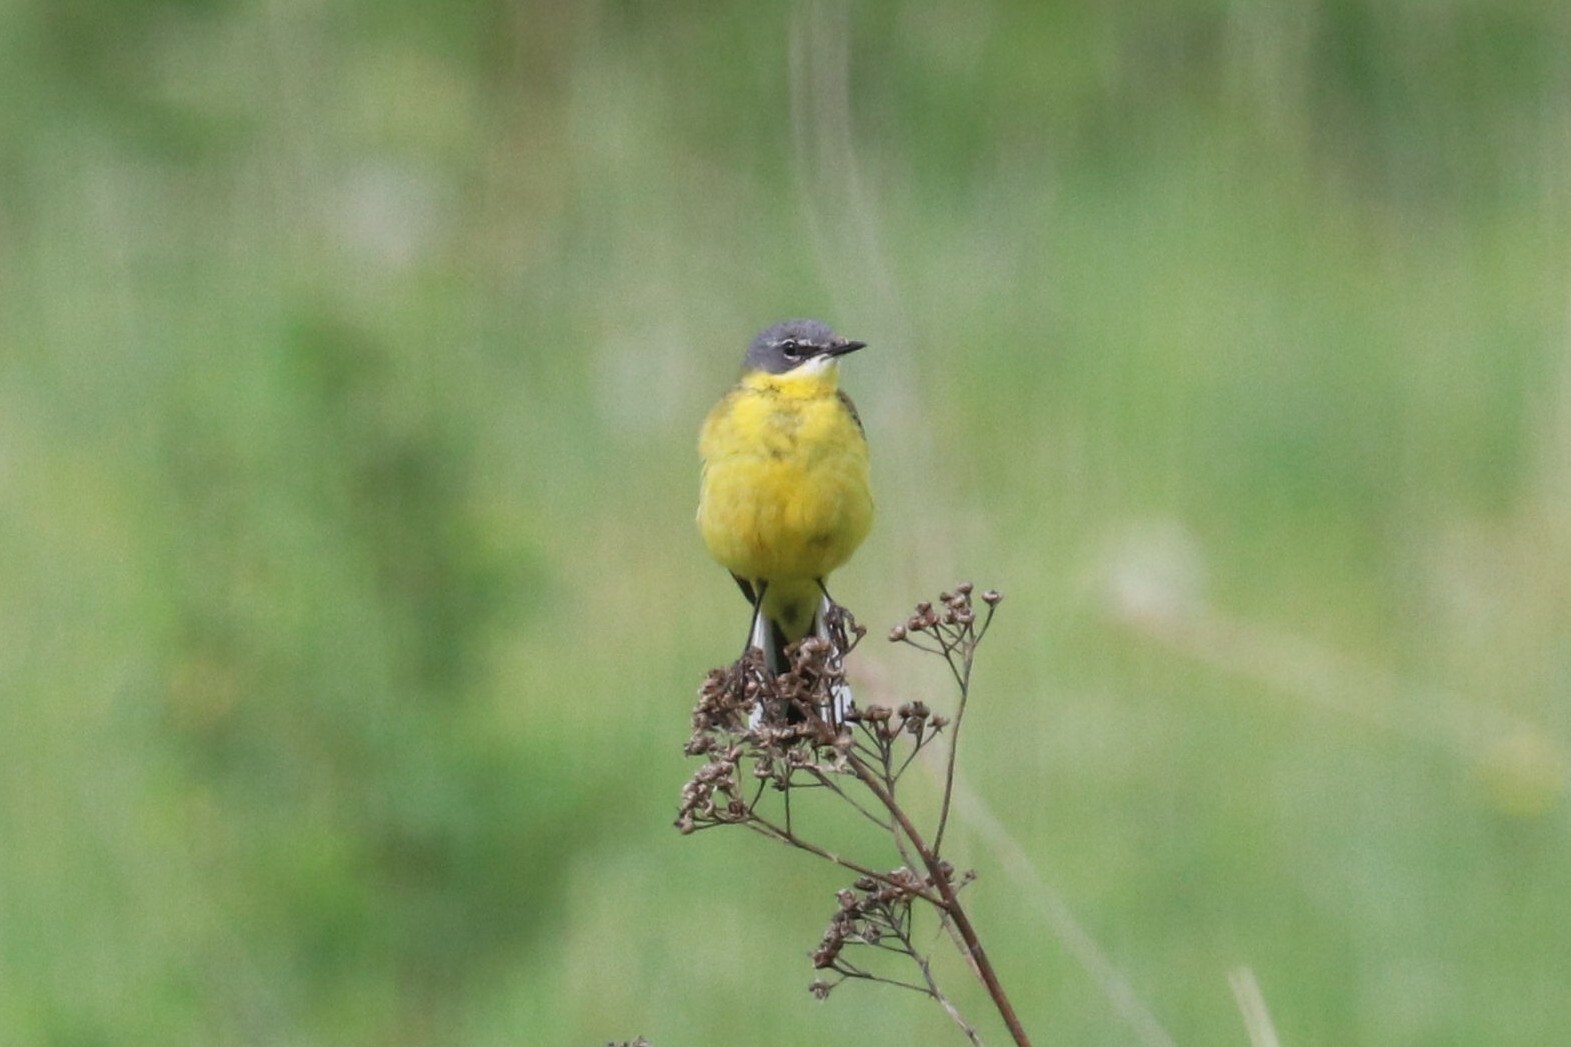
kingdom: Animalia
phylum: Chordata
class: Aves
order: Passeriformes
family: Motacillidae
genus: Motacilla
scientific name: Motacilla flava
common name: Western yellow wagtail
